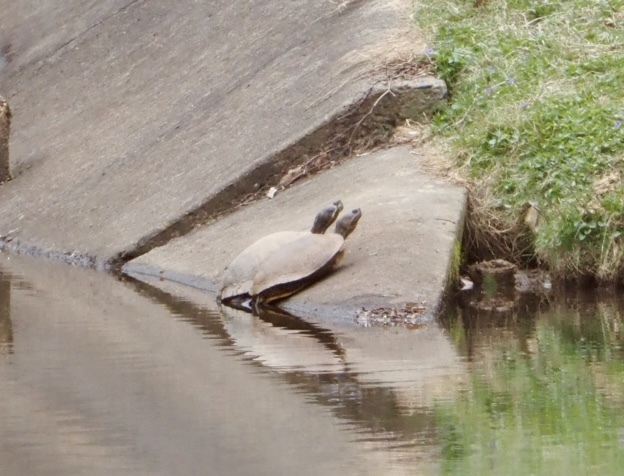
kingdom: Animalia
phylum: Chordata
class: Testudines
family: Emydidae
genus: Trachemys
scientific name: Trachemys scripta
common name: Slider
